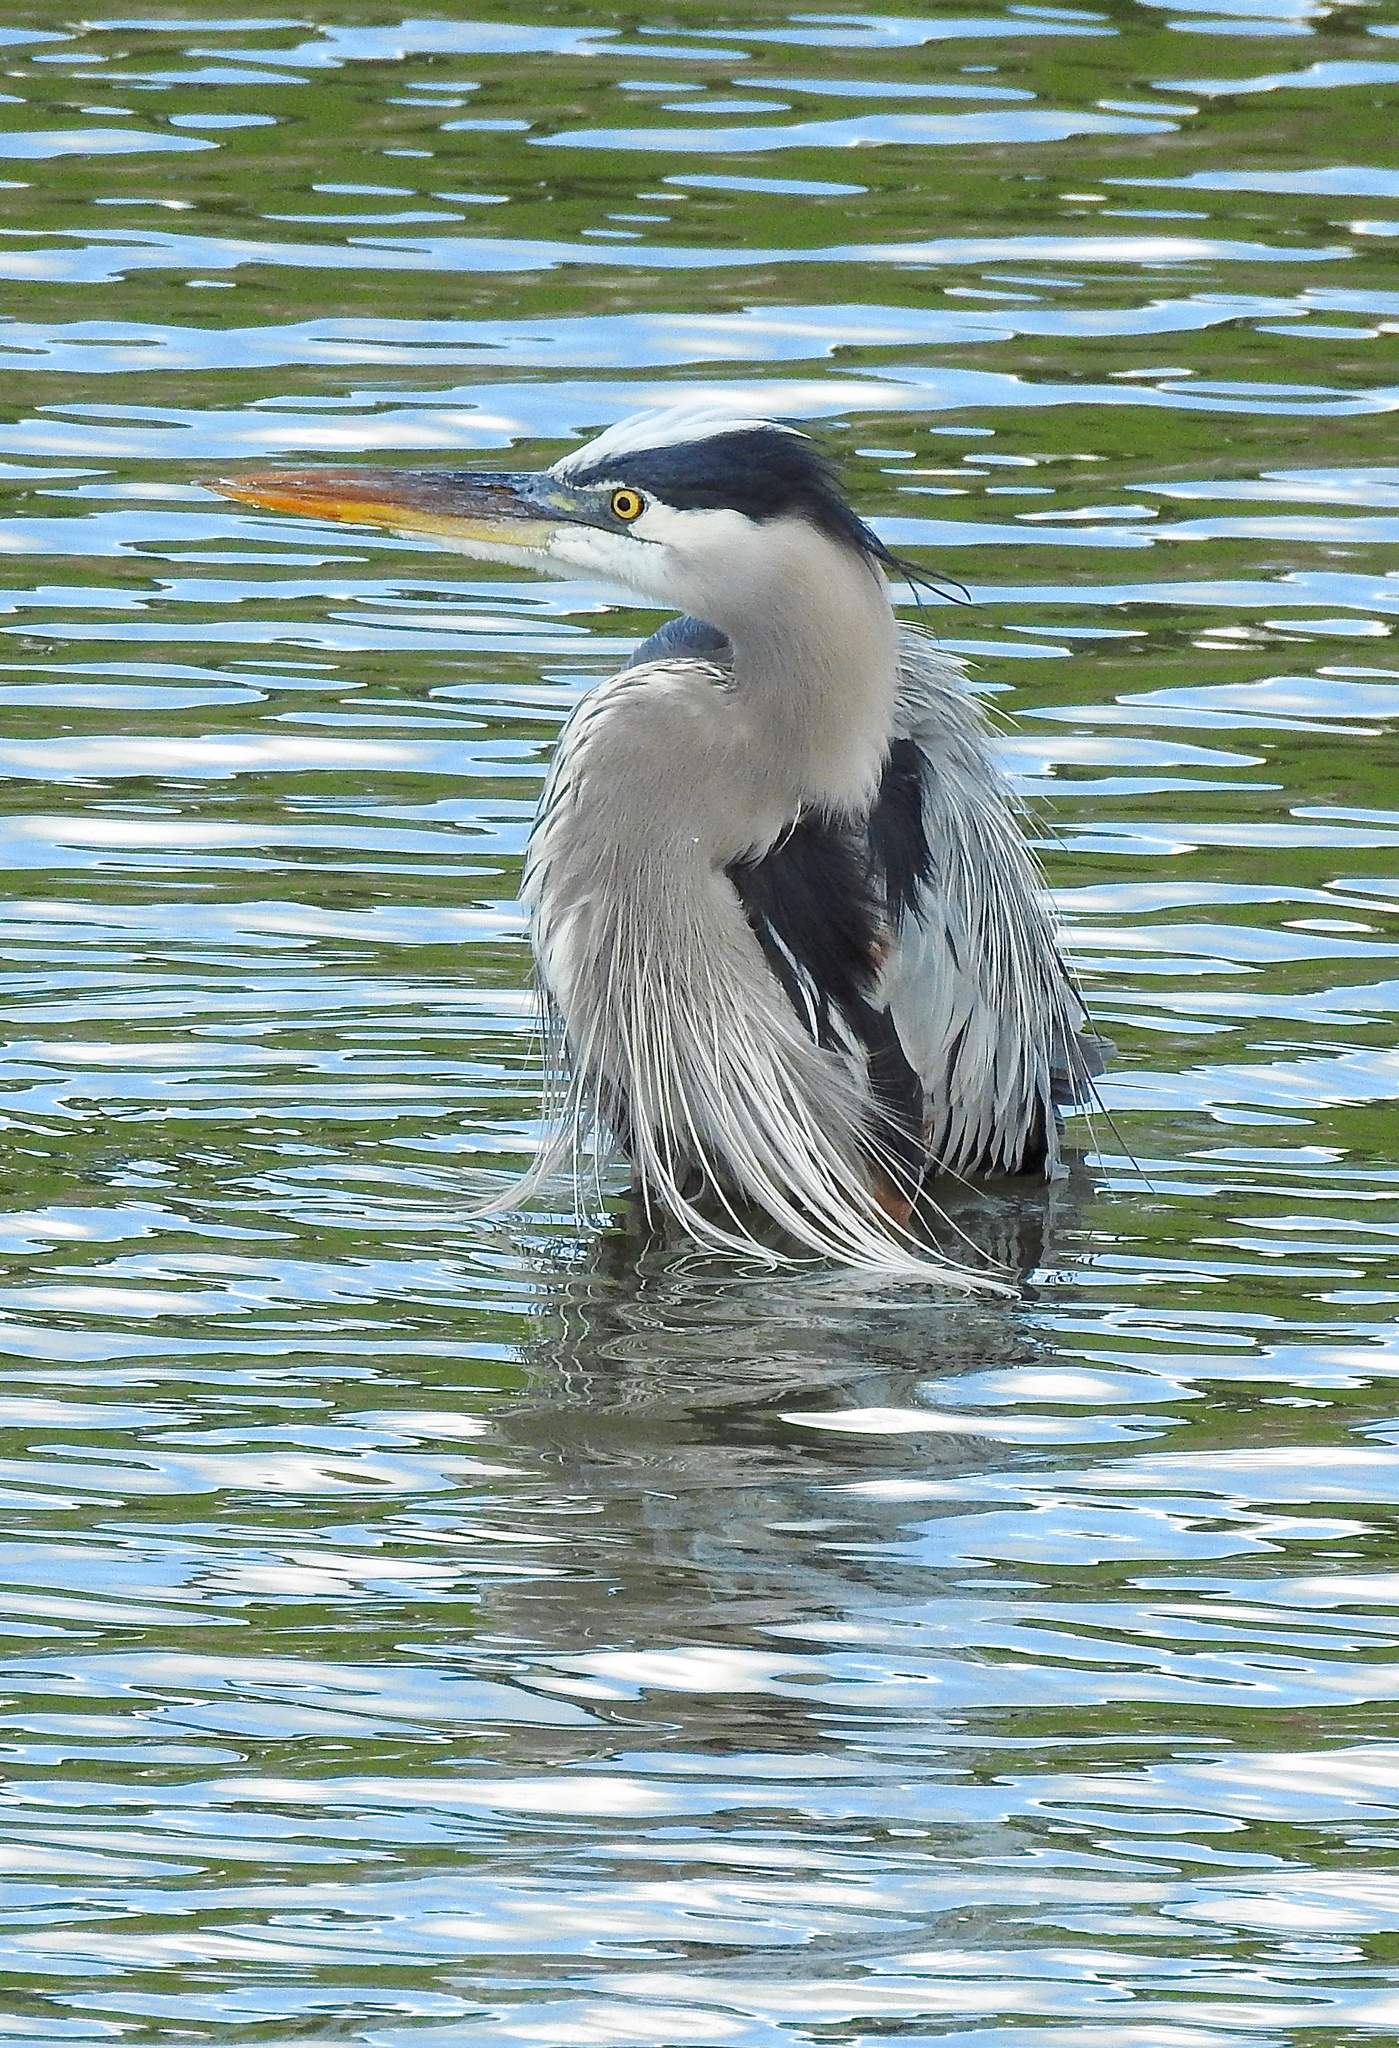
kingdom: Animalia
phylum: Chordata
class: Aves
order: Pelecaniformes
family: Ardeidae
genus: Ardea
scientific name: Ardea herodias
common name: Great blue heron
